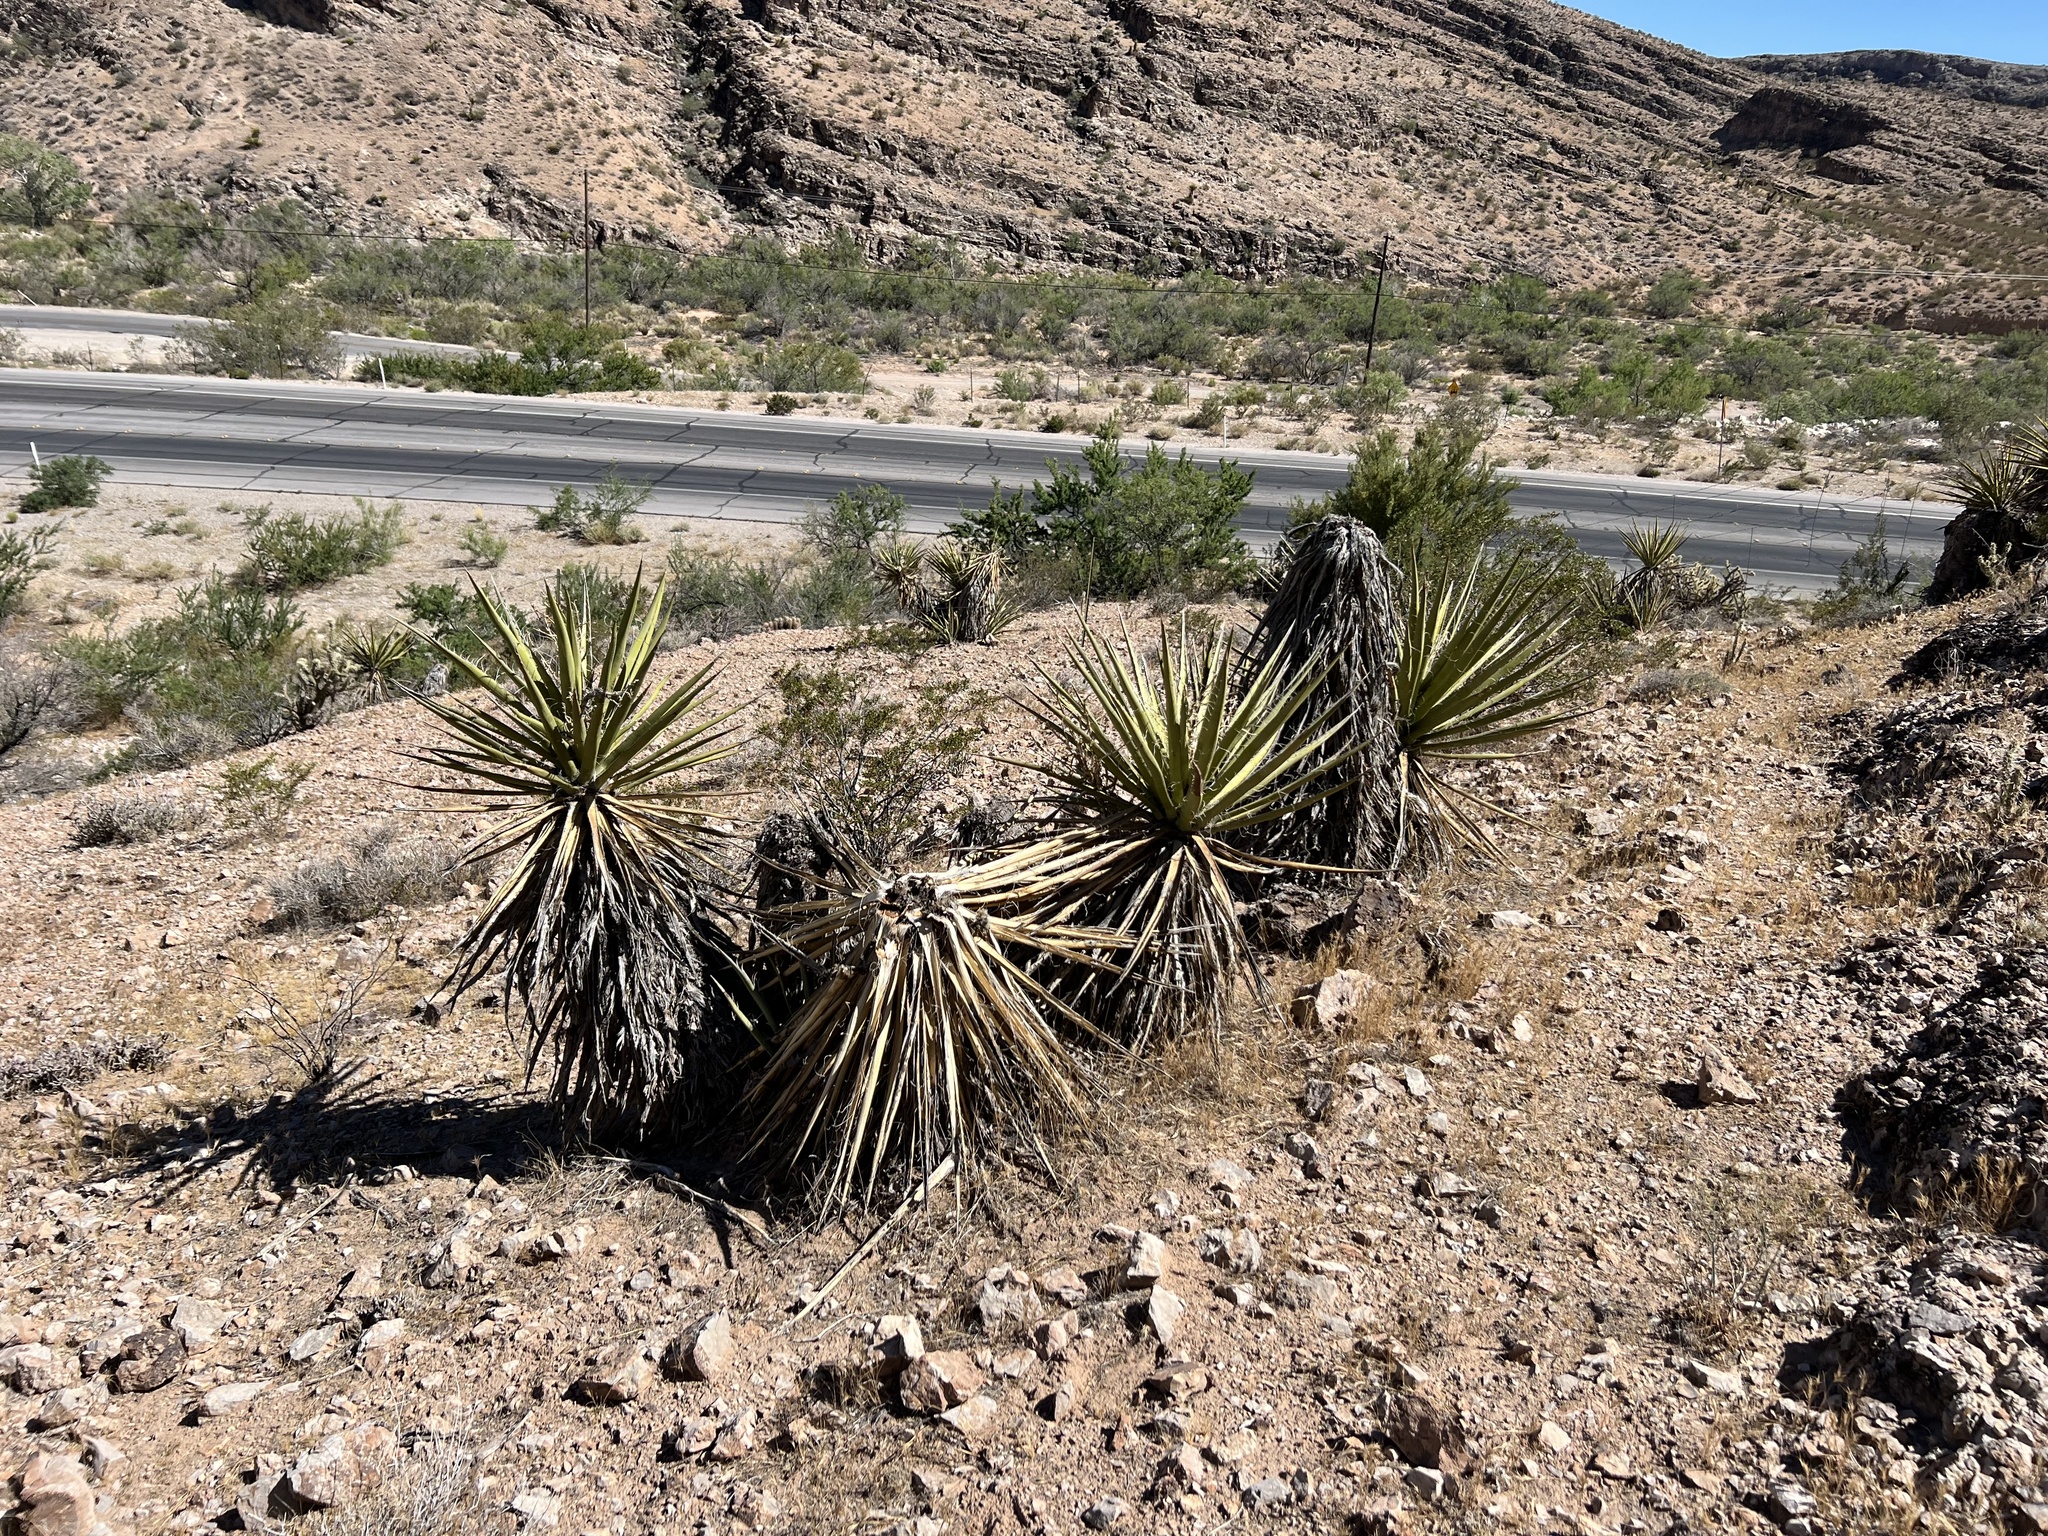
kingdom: Plantae
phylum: Tracheophyta
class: Liliopsida
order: Asparagales
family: Asparagaceae
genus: Yucca
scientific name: Yucca schidigera
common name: Mojave yucca
